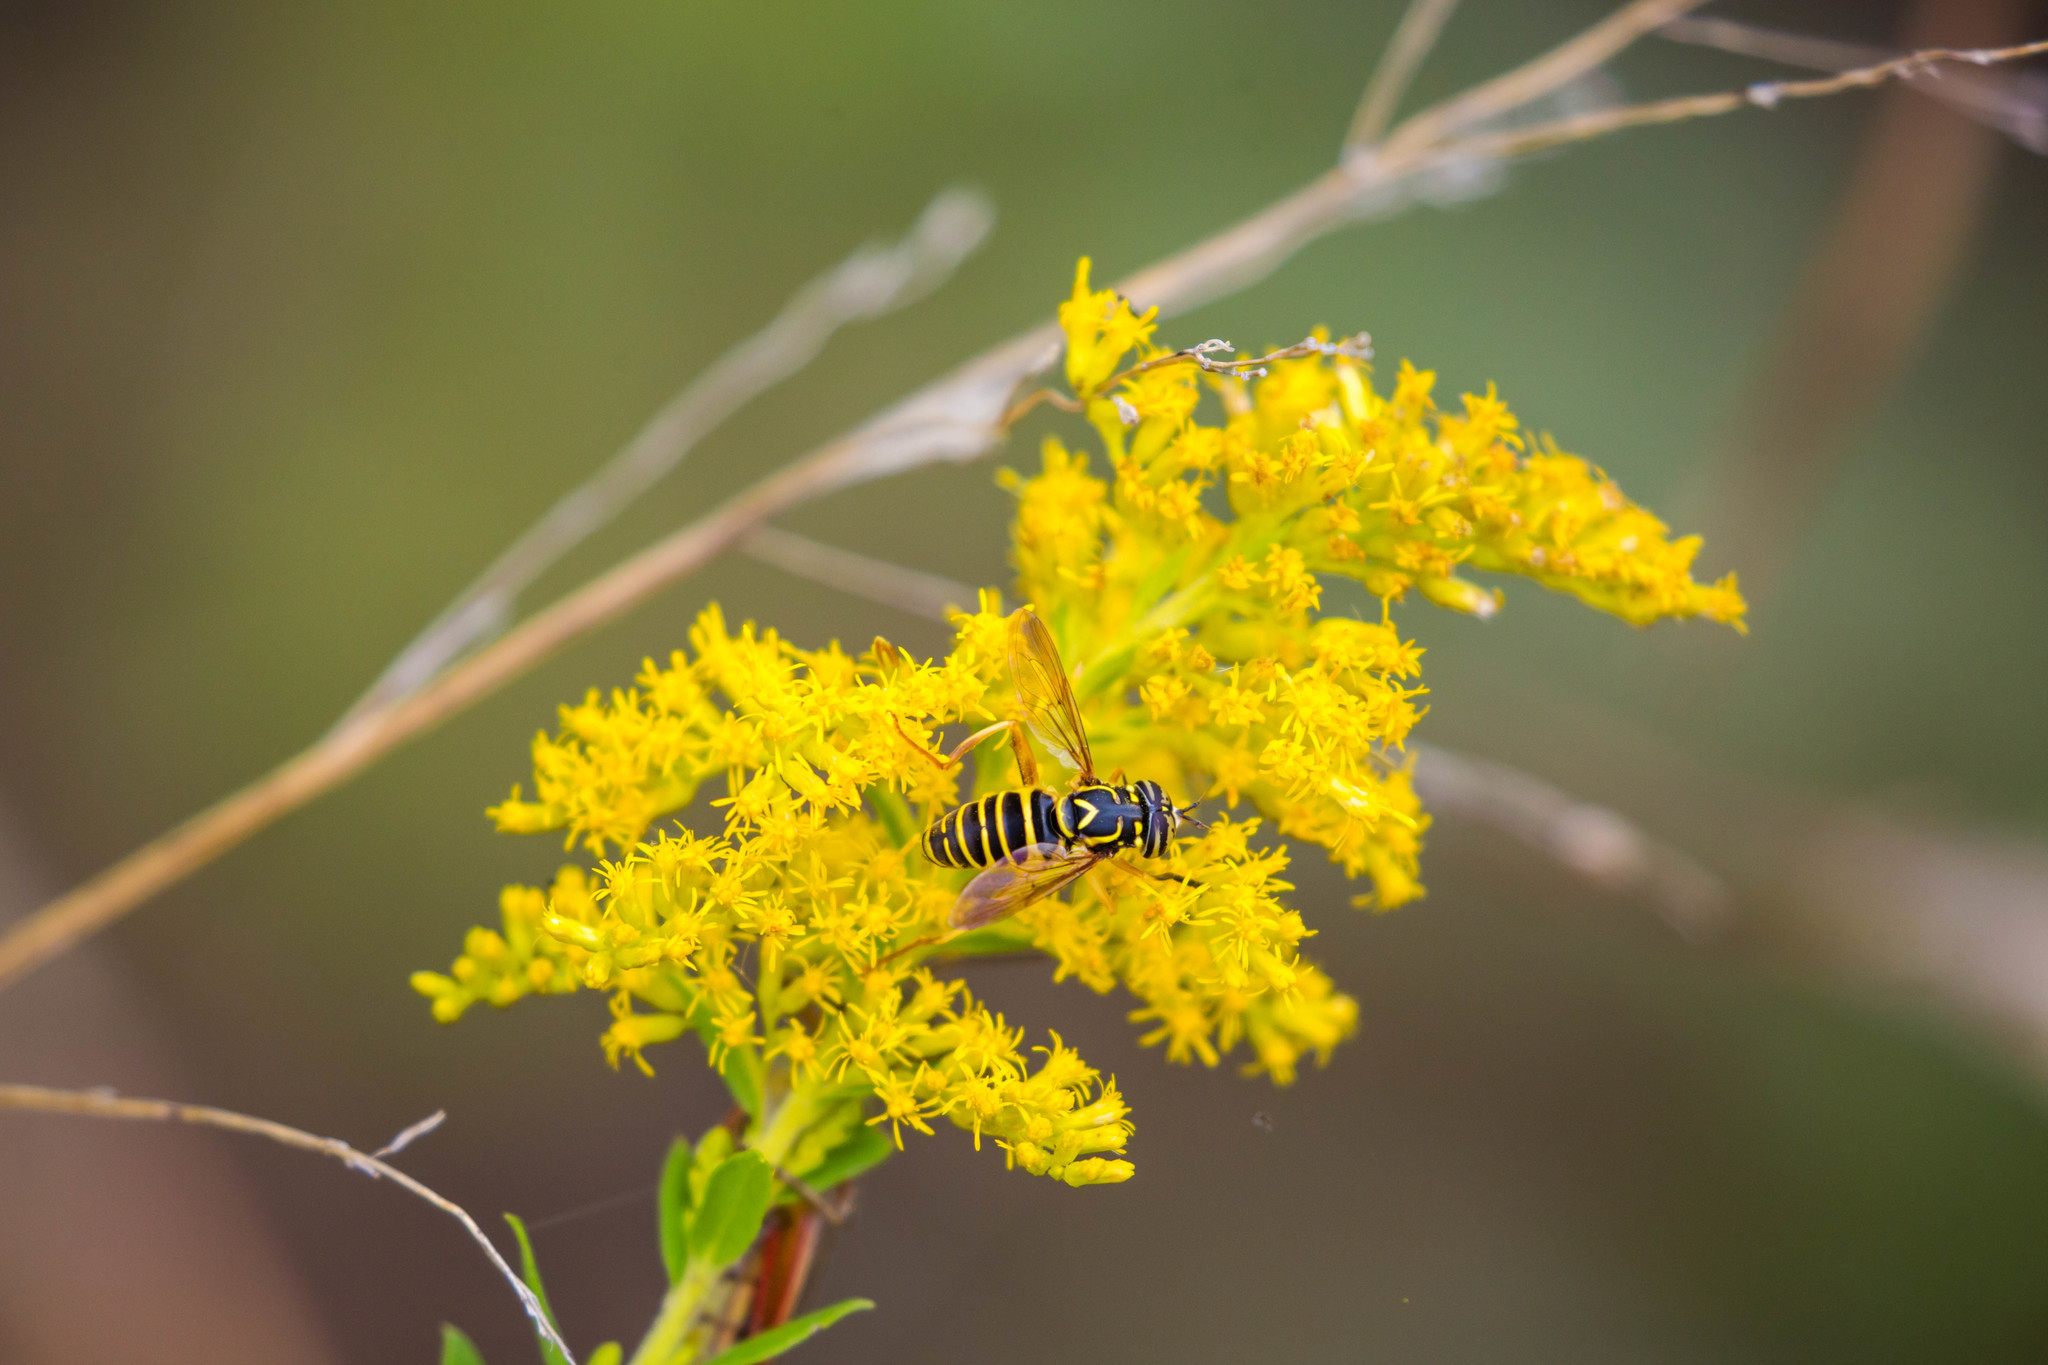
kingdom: Animalia
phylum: Arthropoda
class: Insecta
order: Diptera
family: Syrphidae
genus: Spilomyia
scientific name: Spilomyia longicornis
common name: Eastern hornet fly
